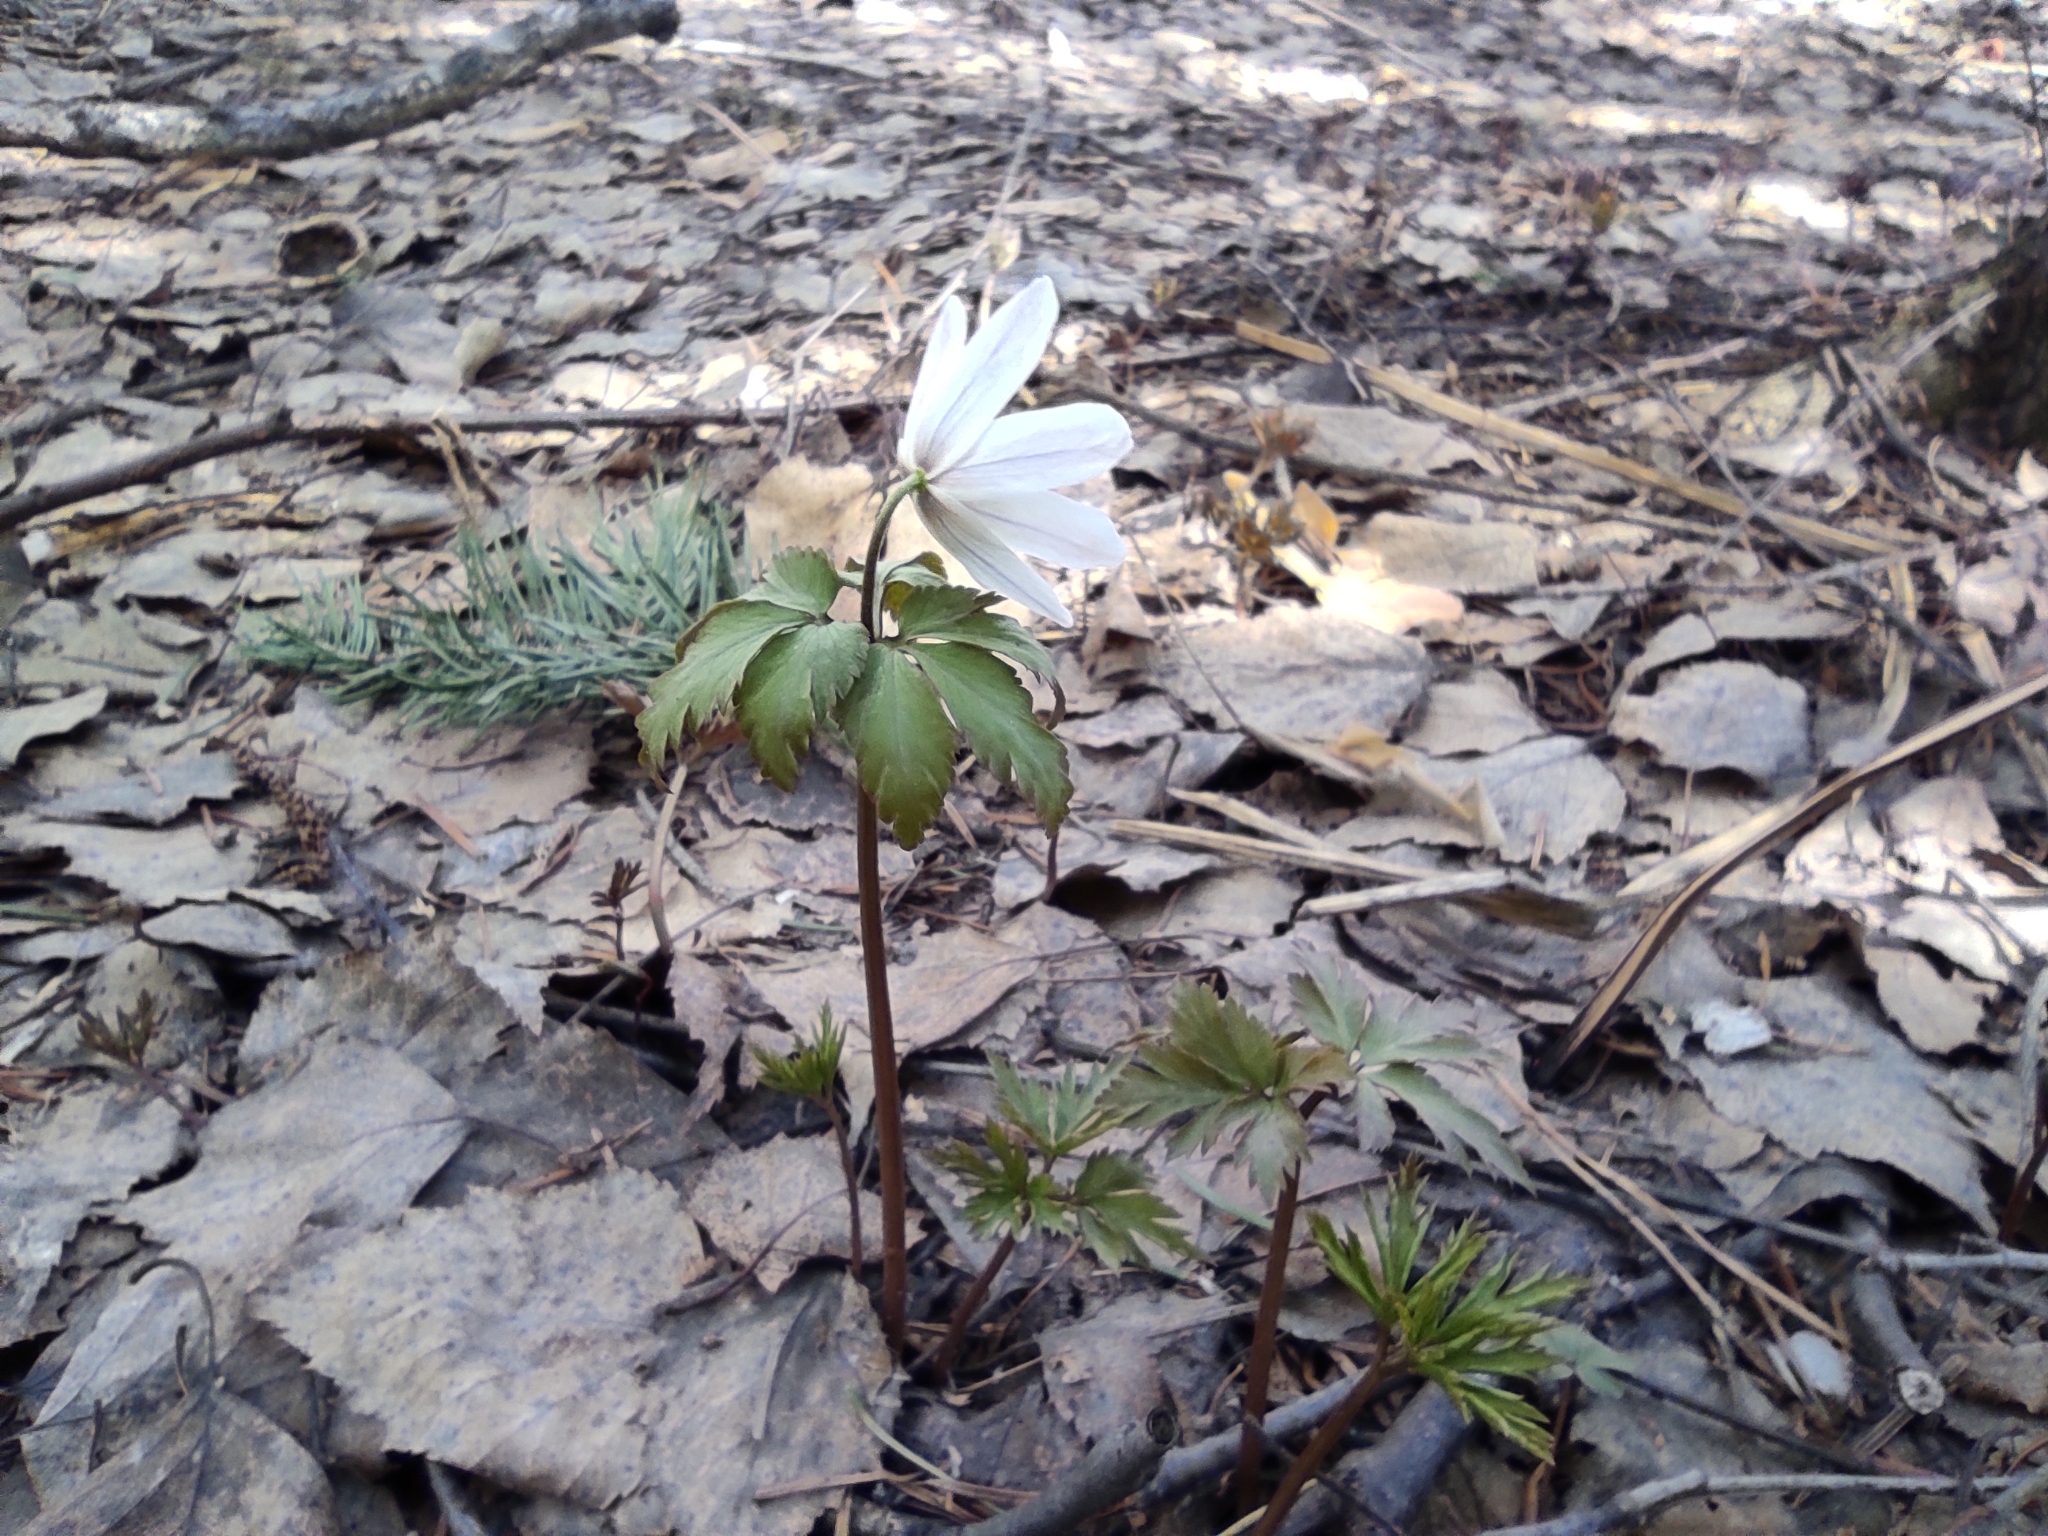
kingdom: Plantae
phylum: Tracheophyta
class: Magnoliopsida
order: Ranunculales
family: Ranunculaceae
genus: Anemone
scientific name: Anemone altaica
